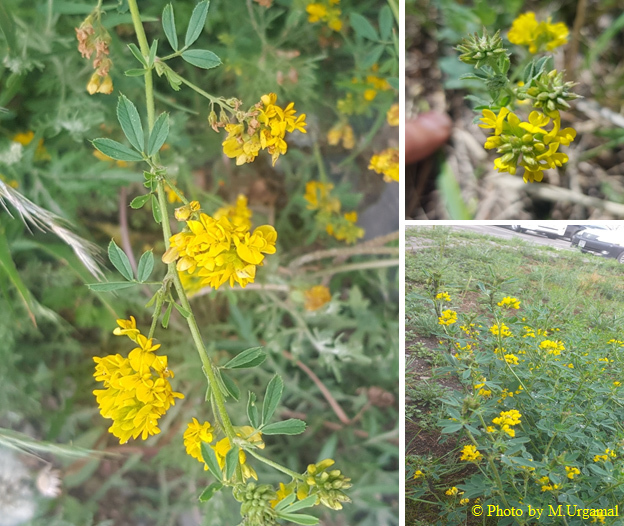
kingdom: Plantae
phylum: Tracheophyta
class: Magnoliopsida
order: Fabales
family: Fabaceae
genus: Medicago
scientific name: Medicago falcata
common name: Sickle medick
